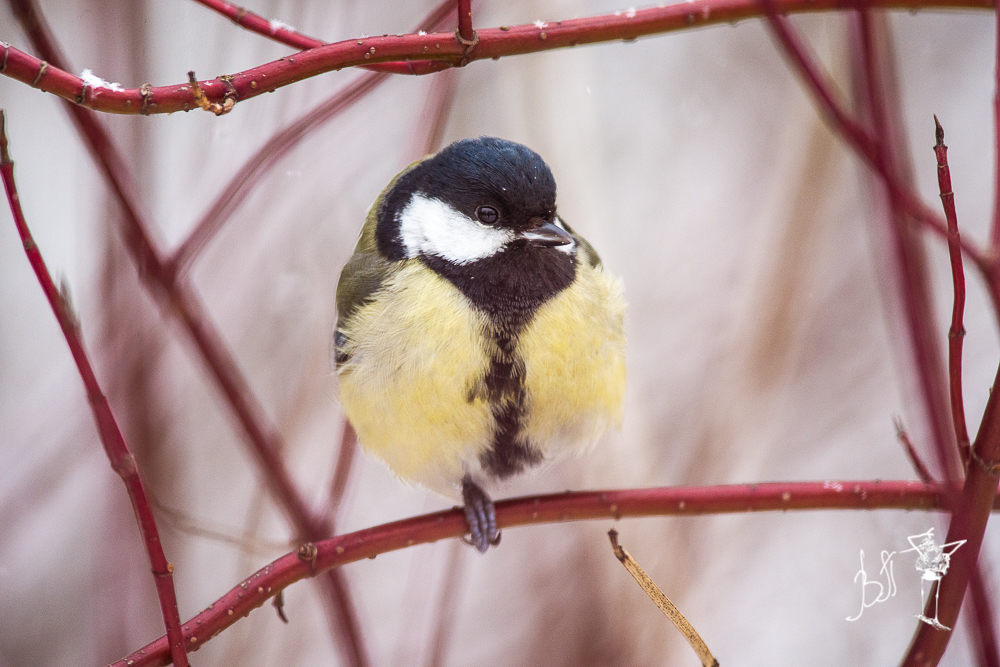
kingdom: Animalia
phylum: Chordata
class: Aves
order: Passeriformes
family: Paridae
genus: Parus
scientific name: Parus major
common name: Great tit
